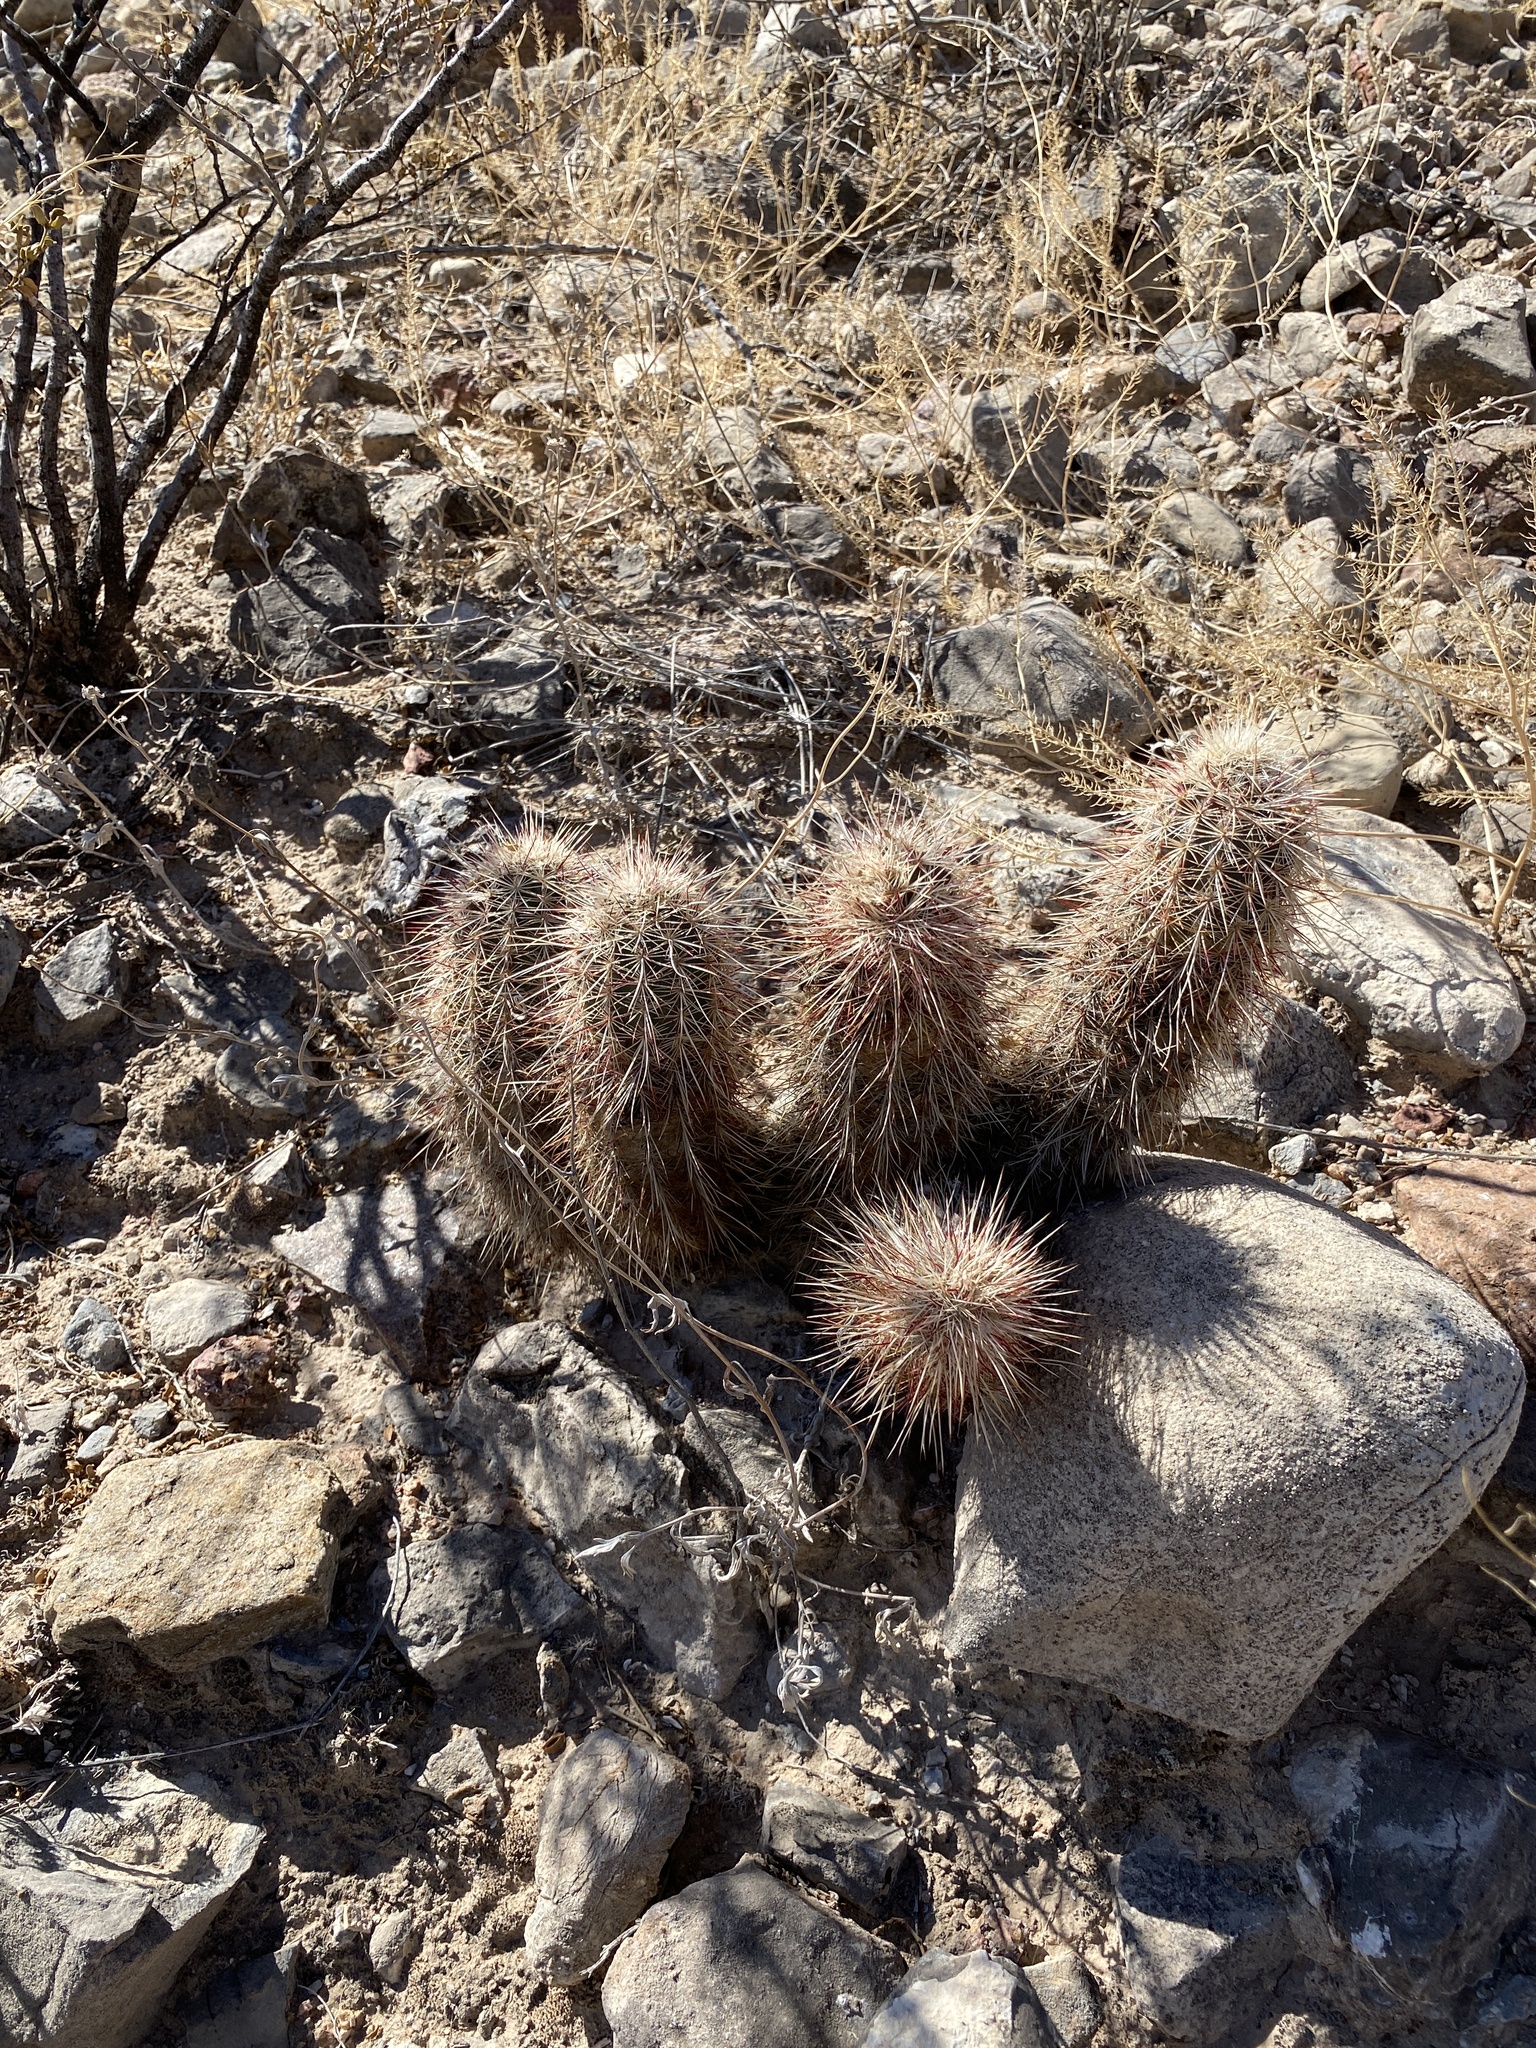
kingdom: Plantae
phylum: Tracheophyta
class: Magnoliopsida
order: Caryophyllales
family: Cactaceae
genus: Echinocereus
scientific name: Echinocereus viridiflorus
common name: Nylon hedgehog cactus
